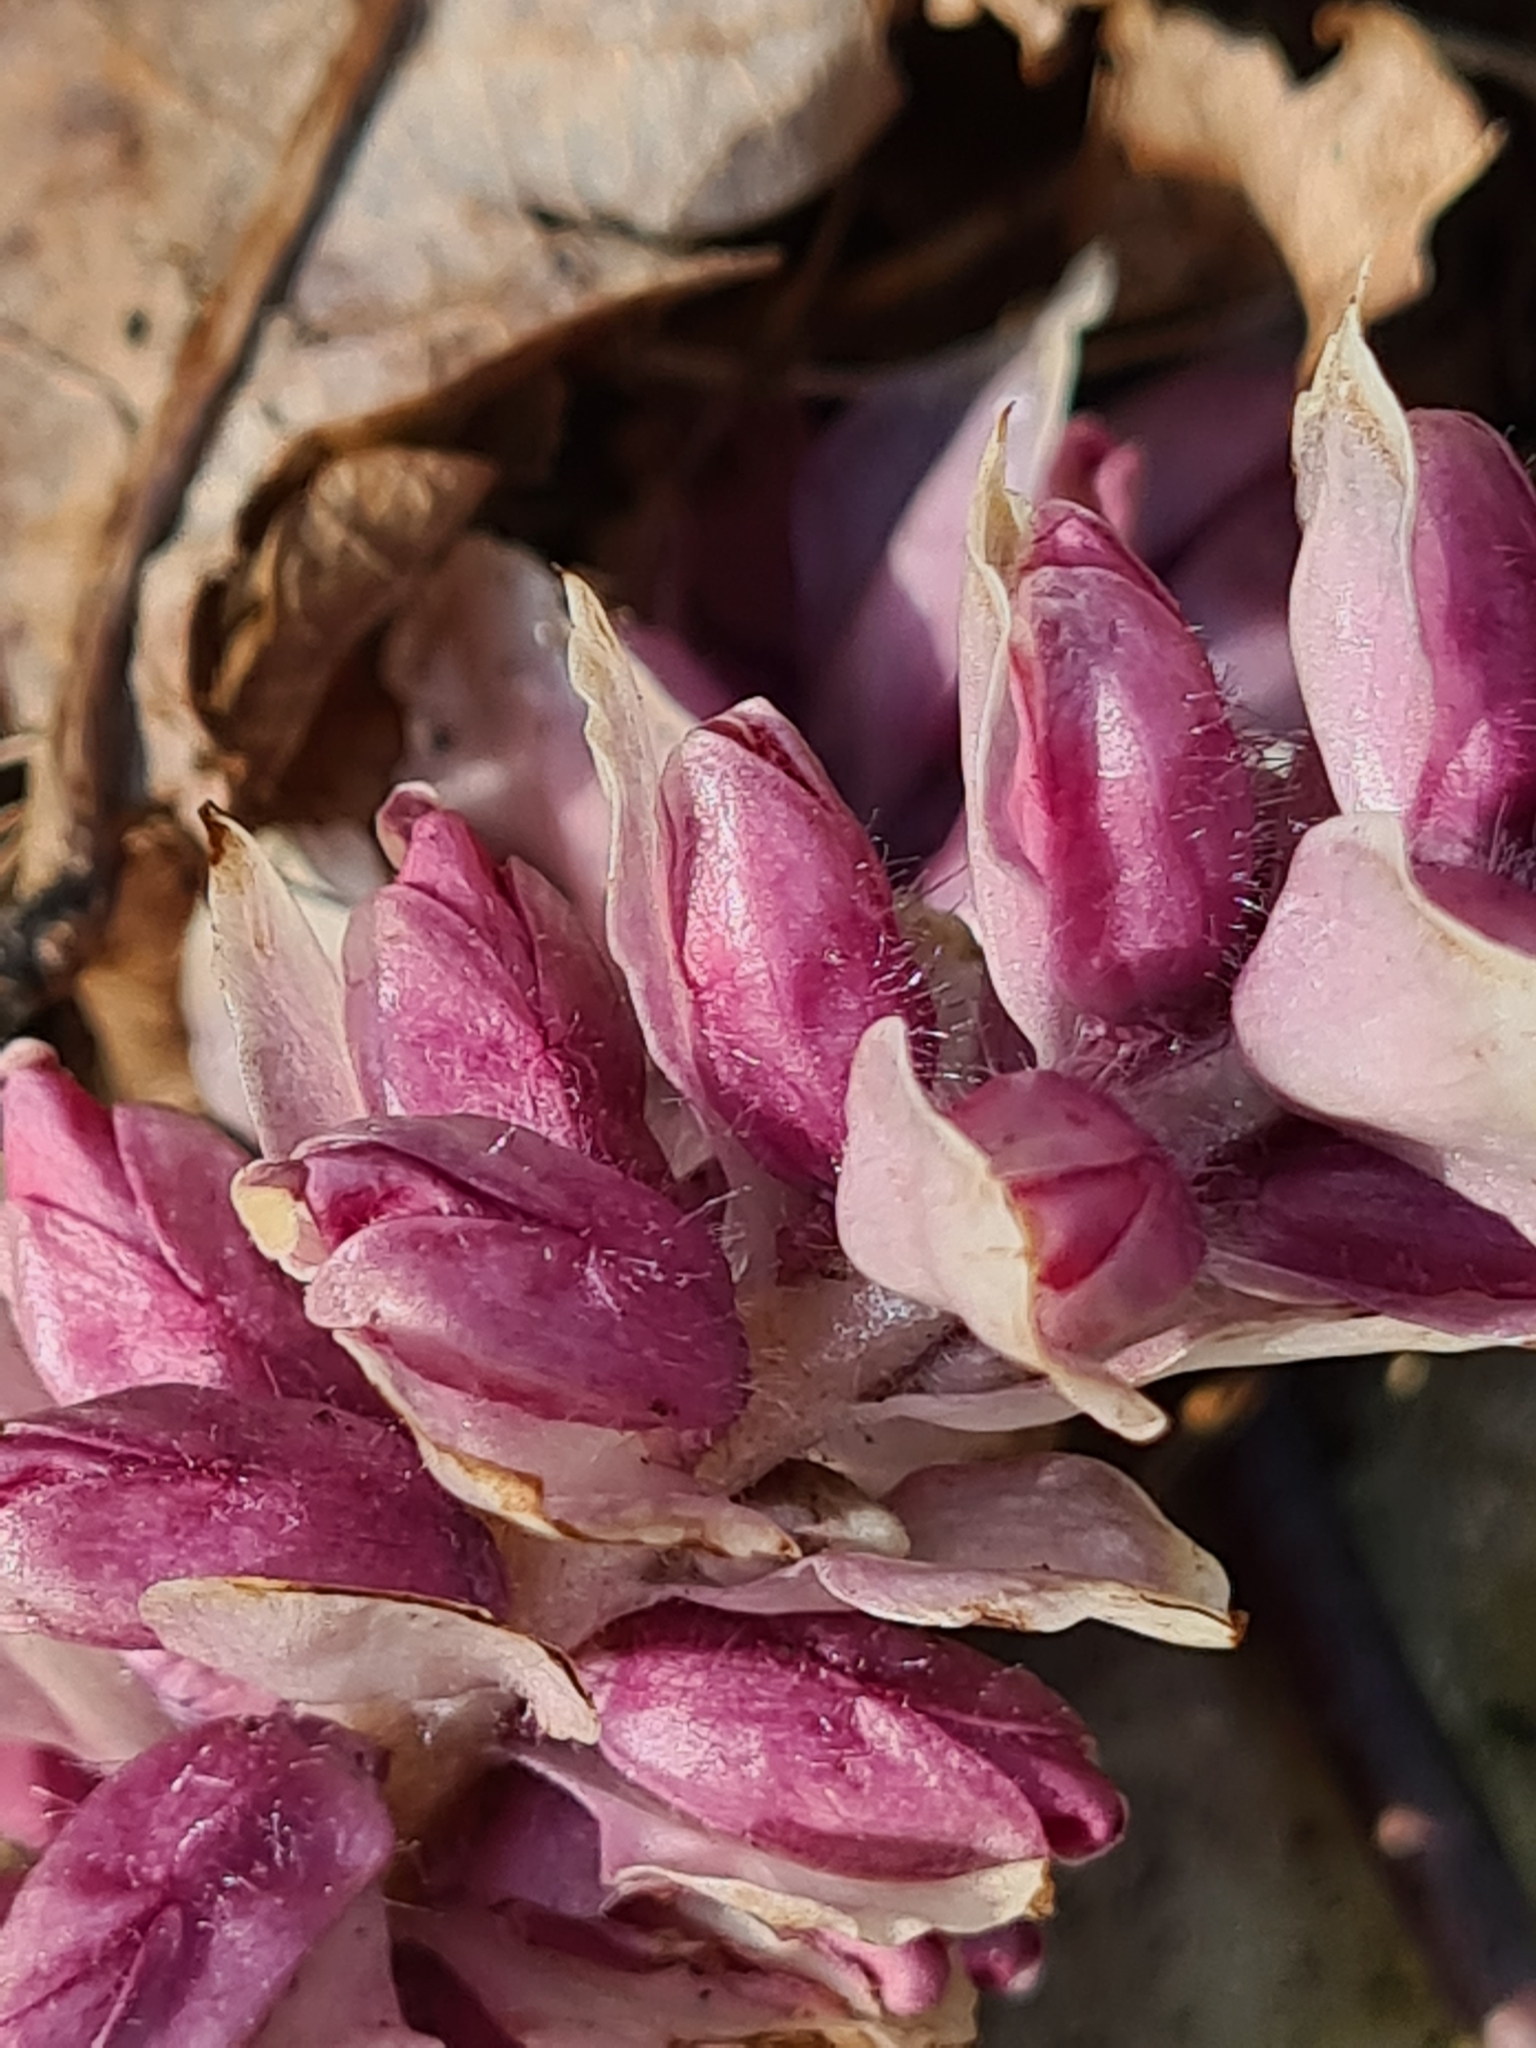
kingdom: Plantae
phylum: Tracheophyta
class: Magnoliopsida
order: Lamiales
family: Orobanchaceae
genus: Lathraea
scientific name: Lathraea squamaria
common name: Toothwort
